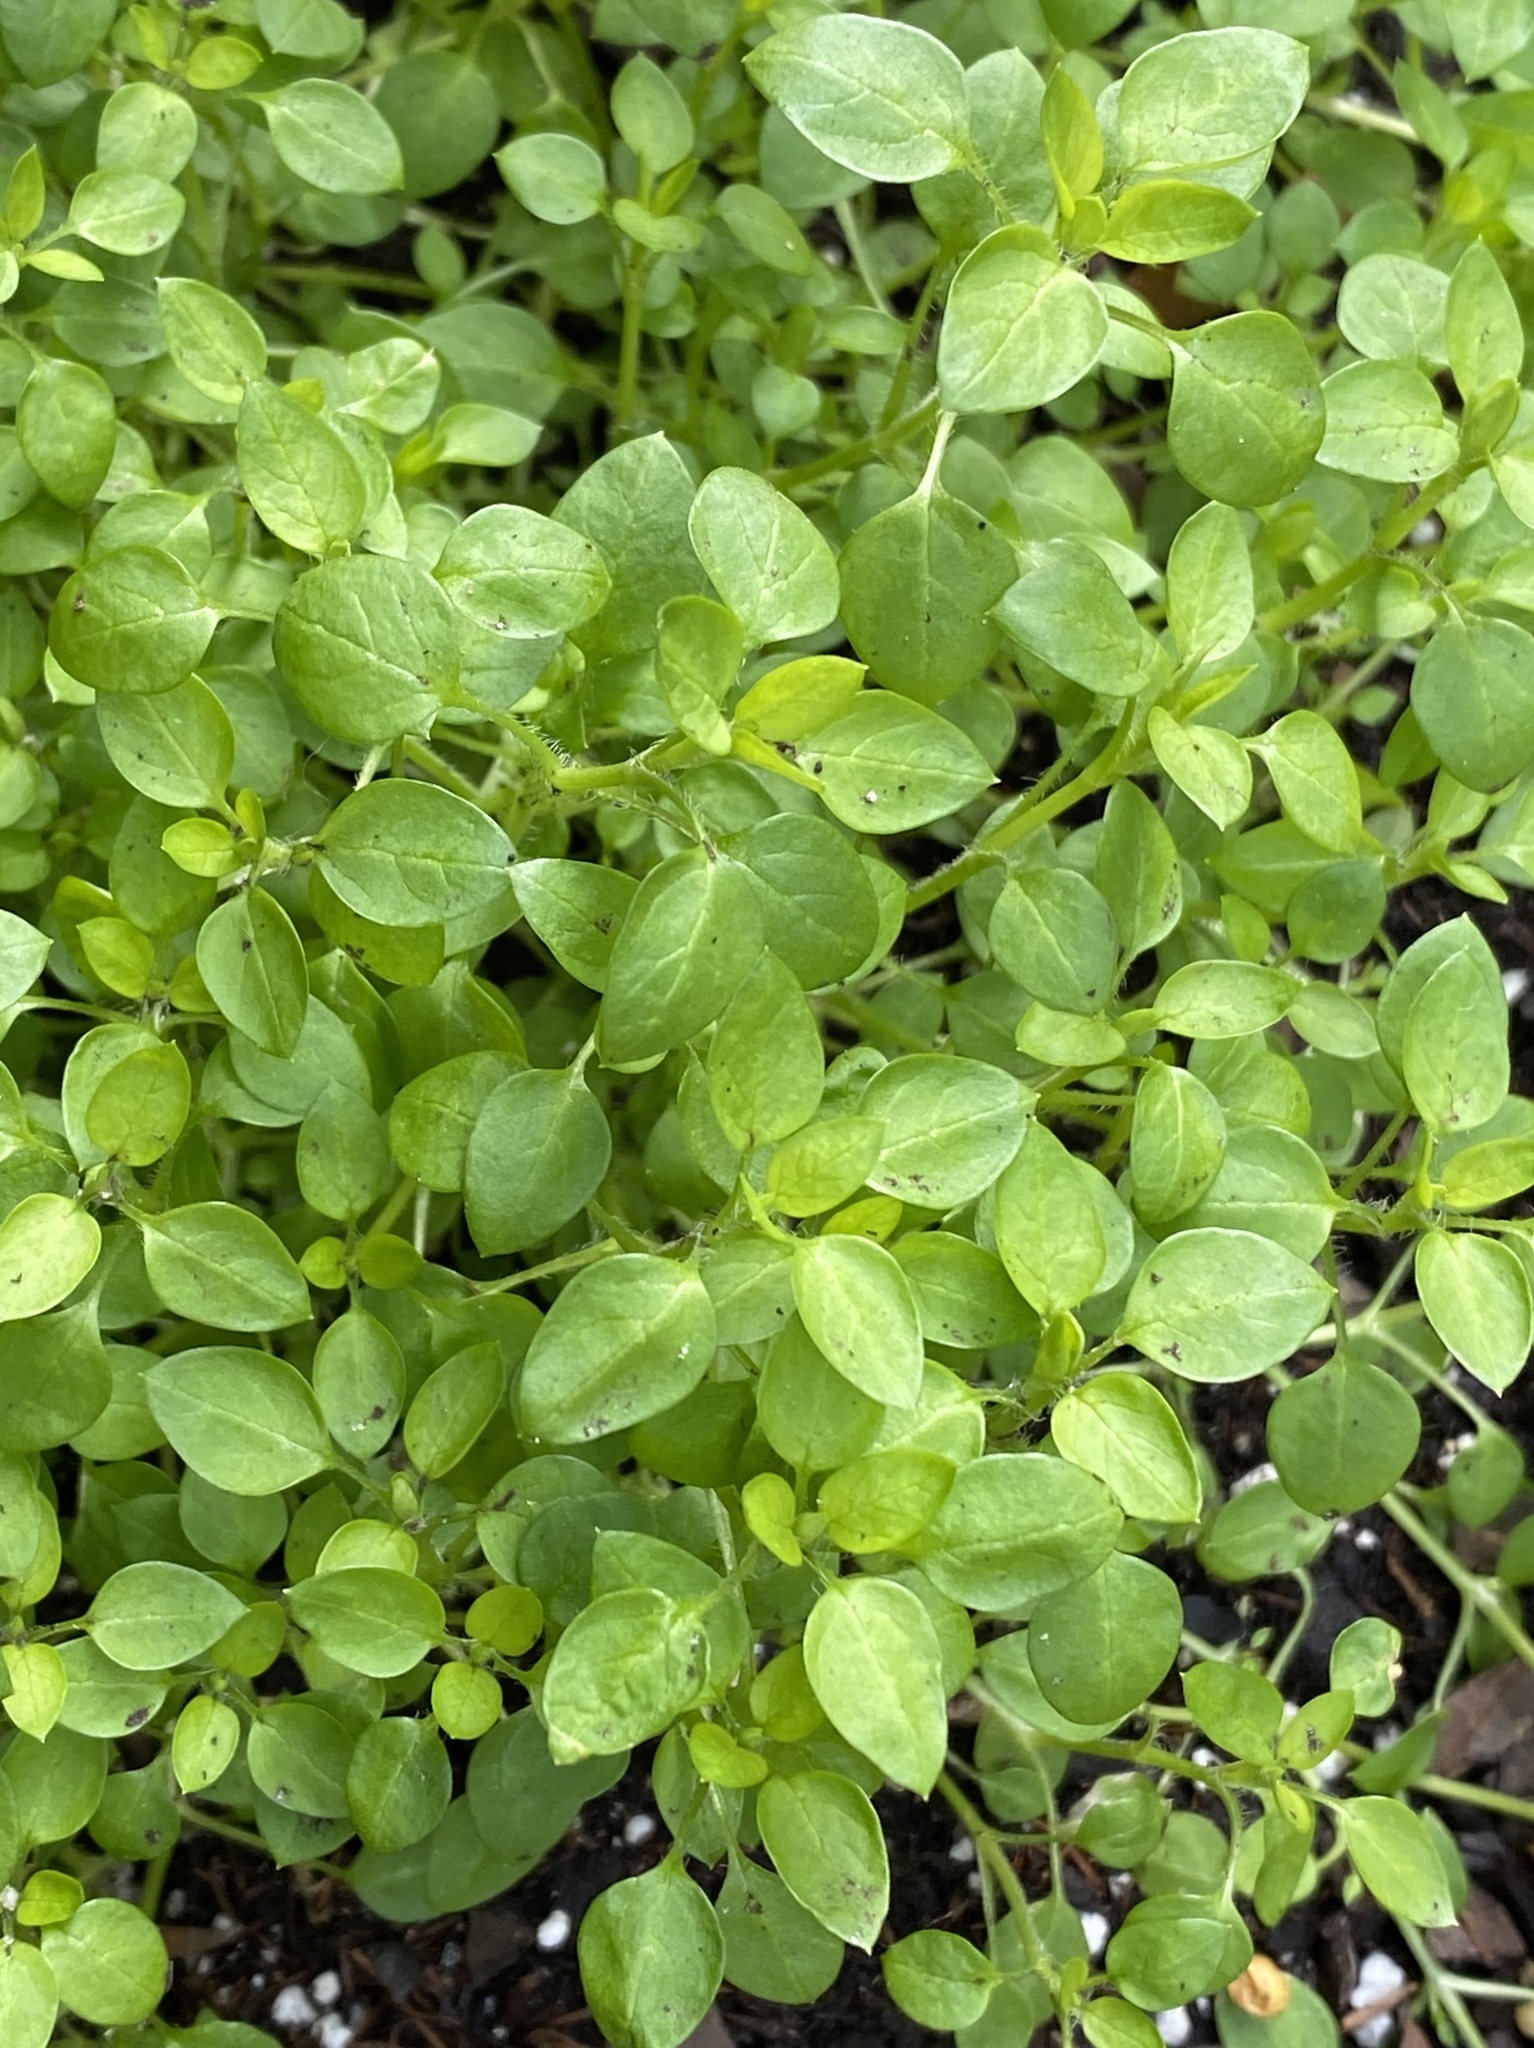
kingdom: Plantae
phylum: Tracheophyta
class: Magnoliopsida
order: Caryophyllales
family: Caryophyllaceae
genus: Stellaria
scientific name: Stellaria media
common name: Common chickweed
